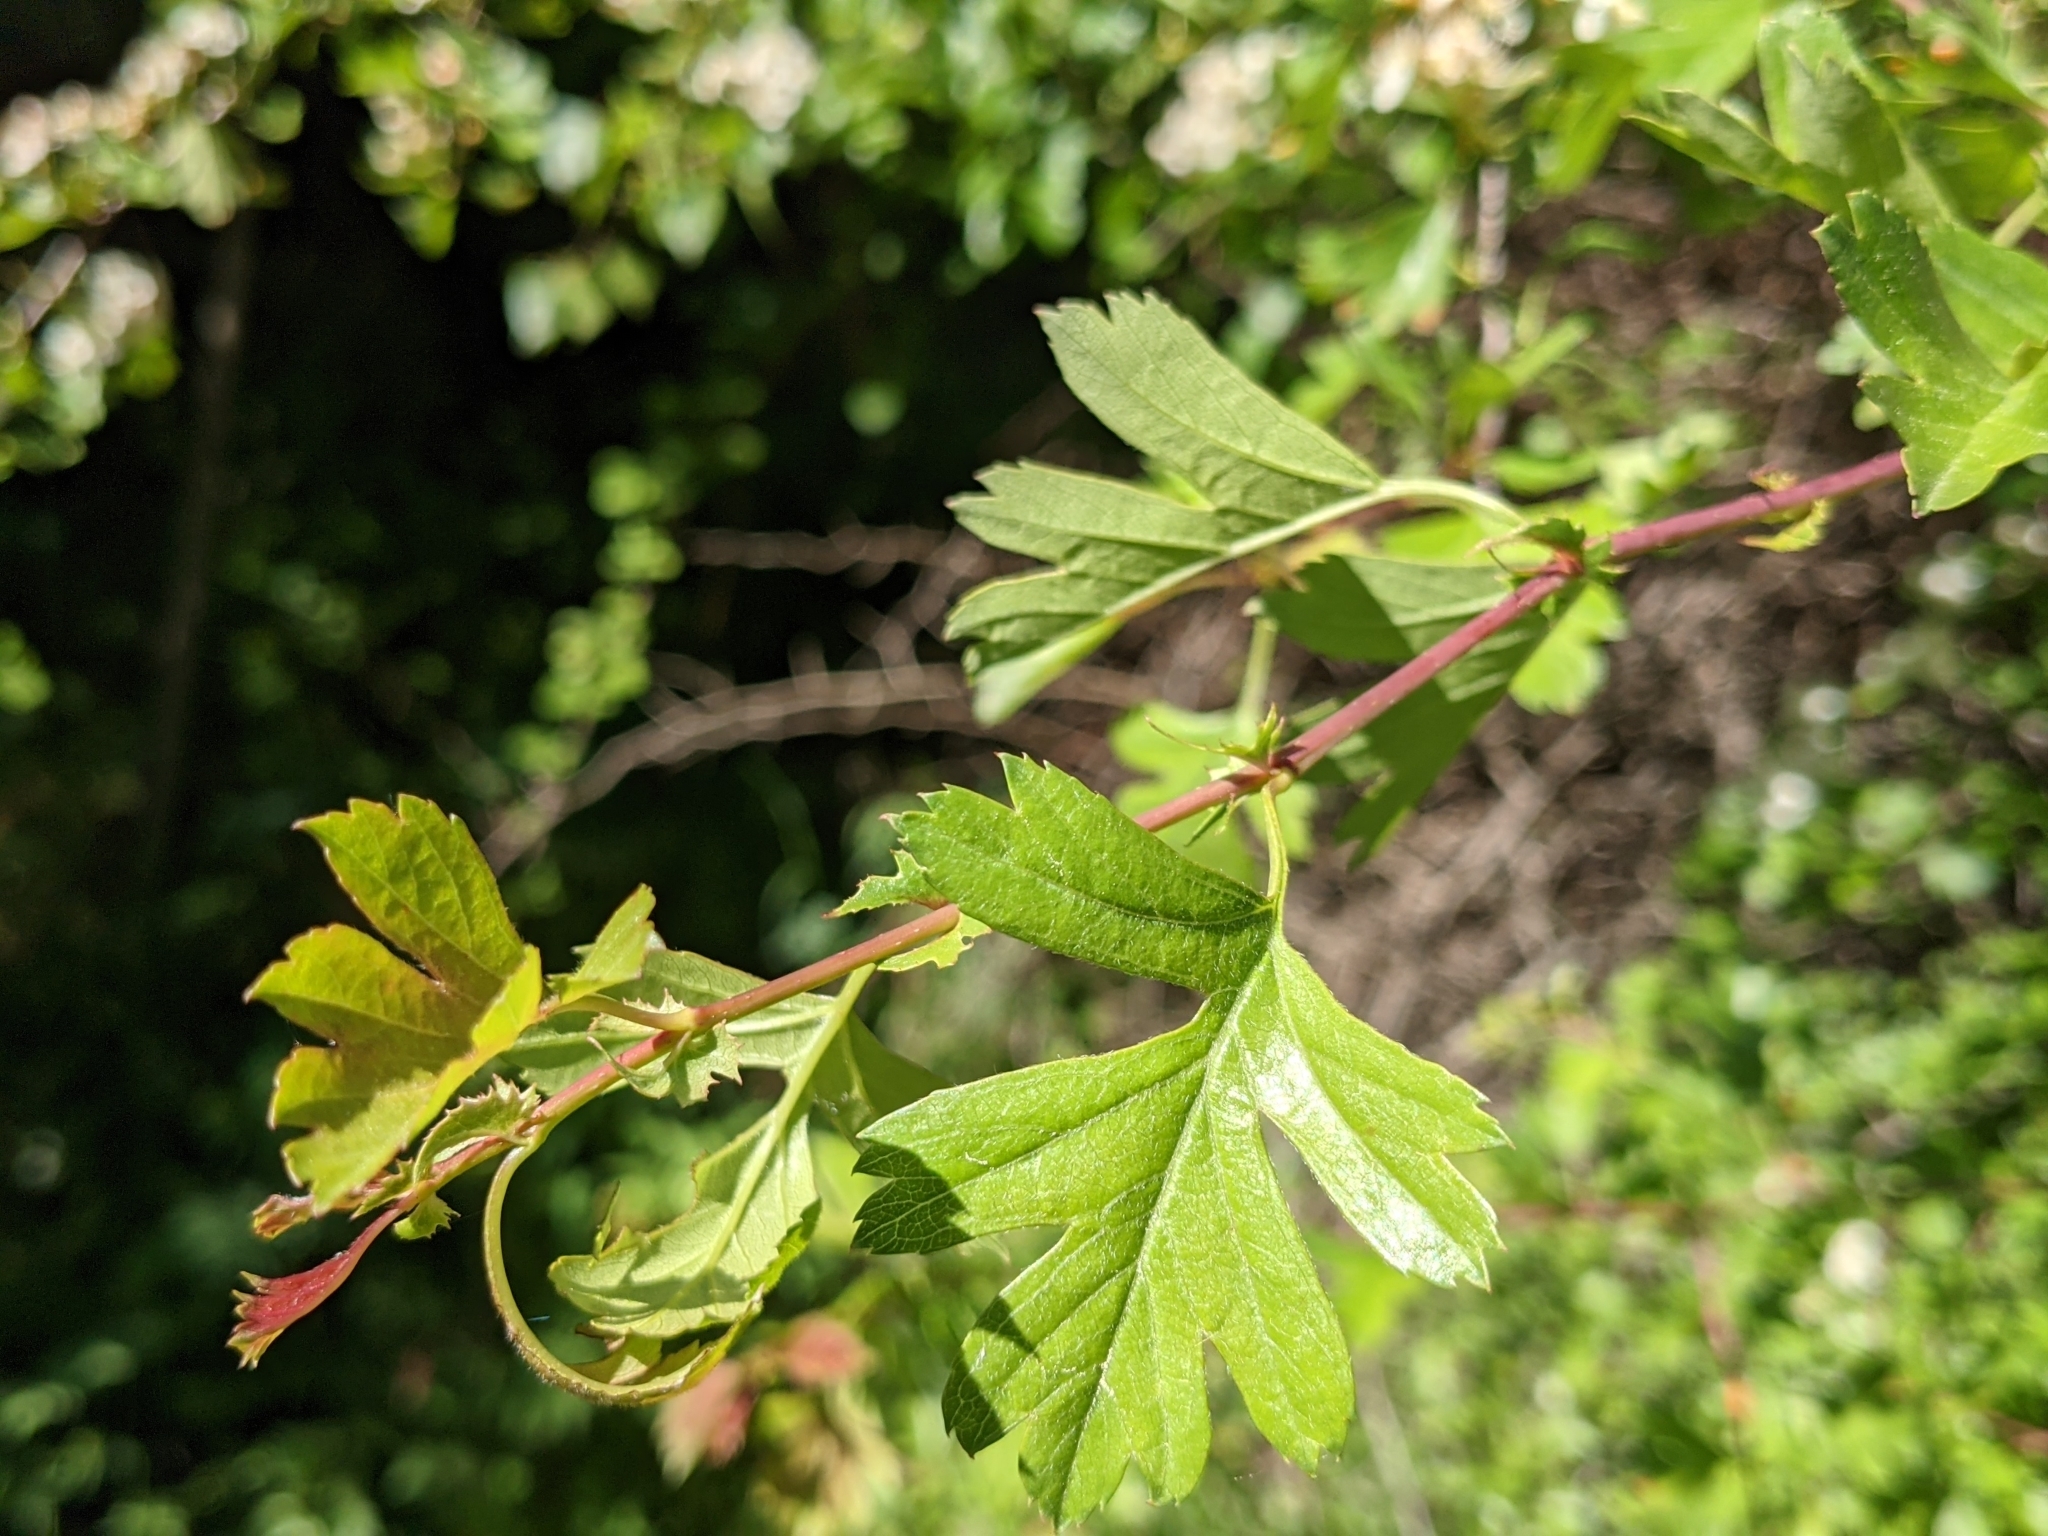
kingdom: Plantae
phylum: Tracheophyta
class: Magnoliopsida
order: Rosales
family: Rosaceae
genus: Crataegus
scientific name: Crataegus monogyna
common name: Hawthorn
